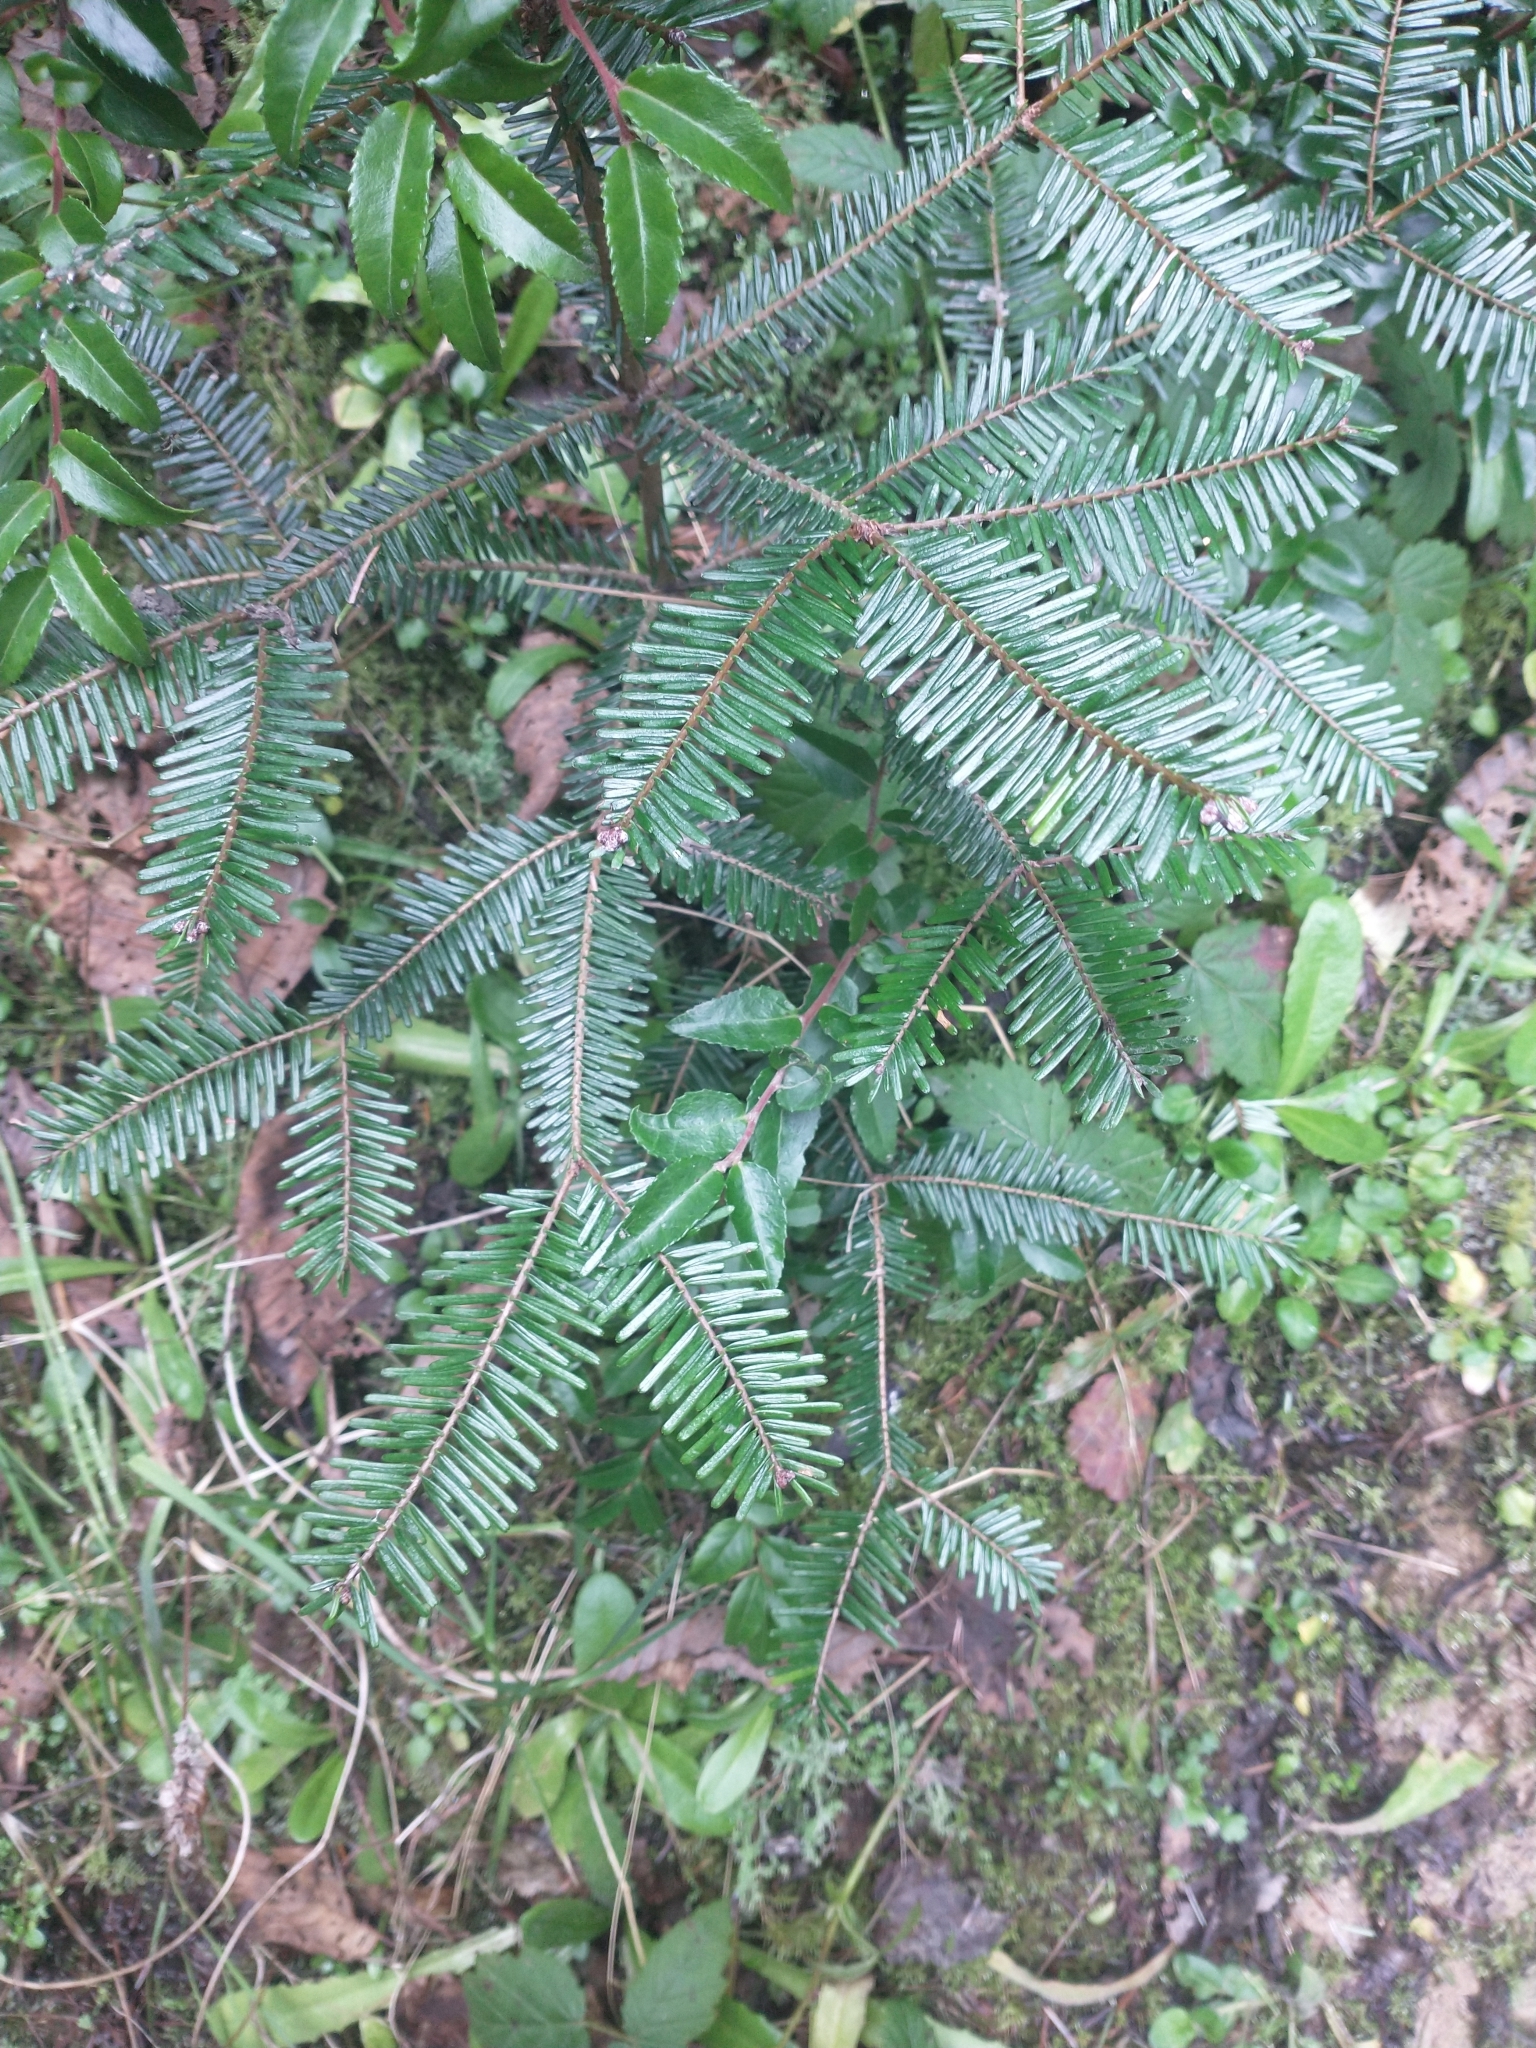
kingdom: Plantae
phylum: Tracheophyta
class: Pinopsida
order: Pinales
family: Pinaceae
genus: Abies
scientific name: Abies grandis
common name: Giant fir
